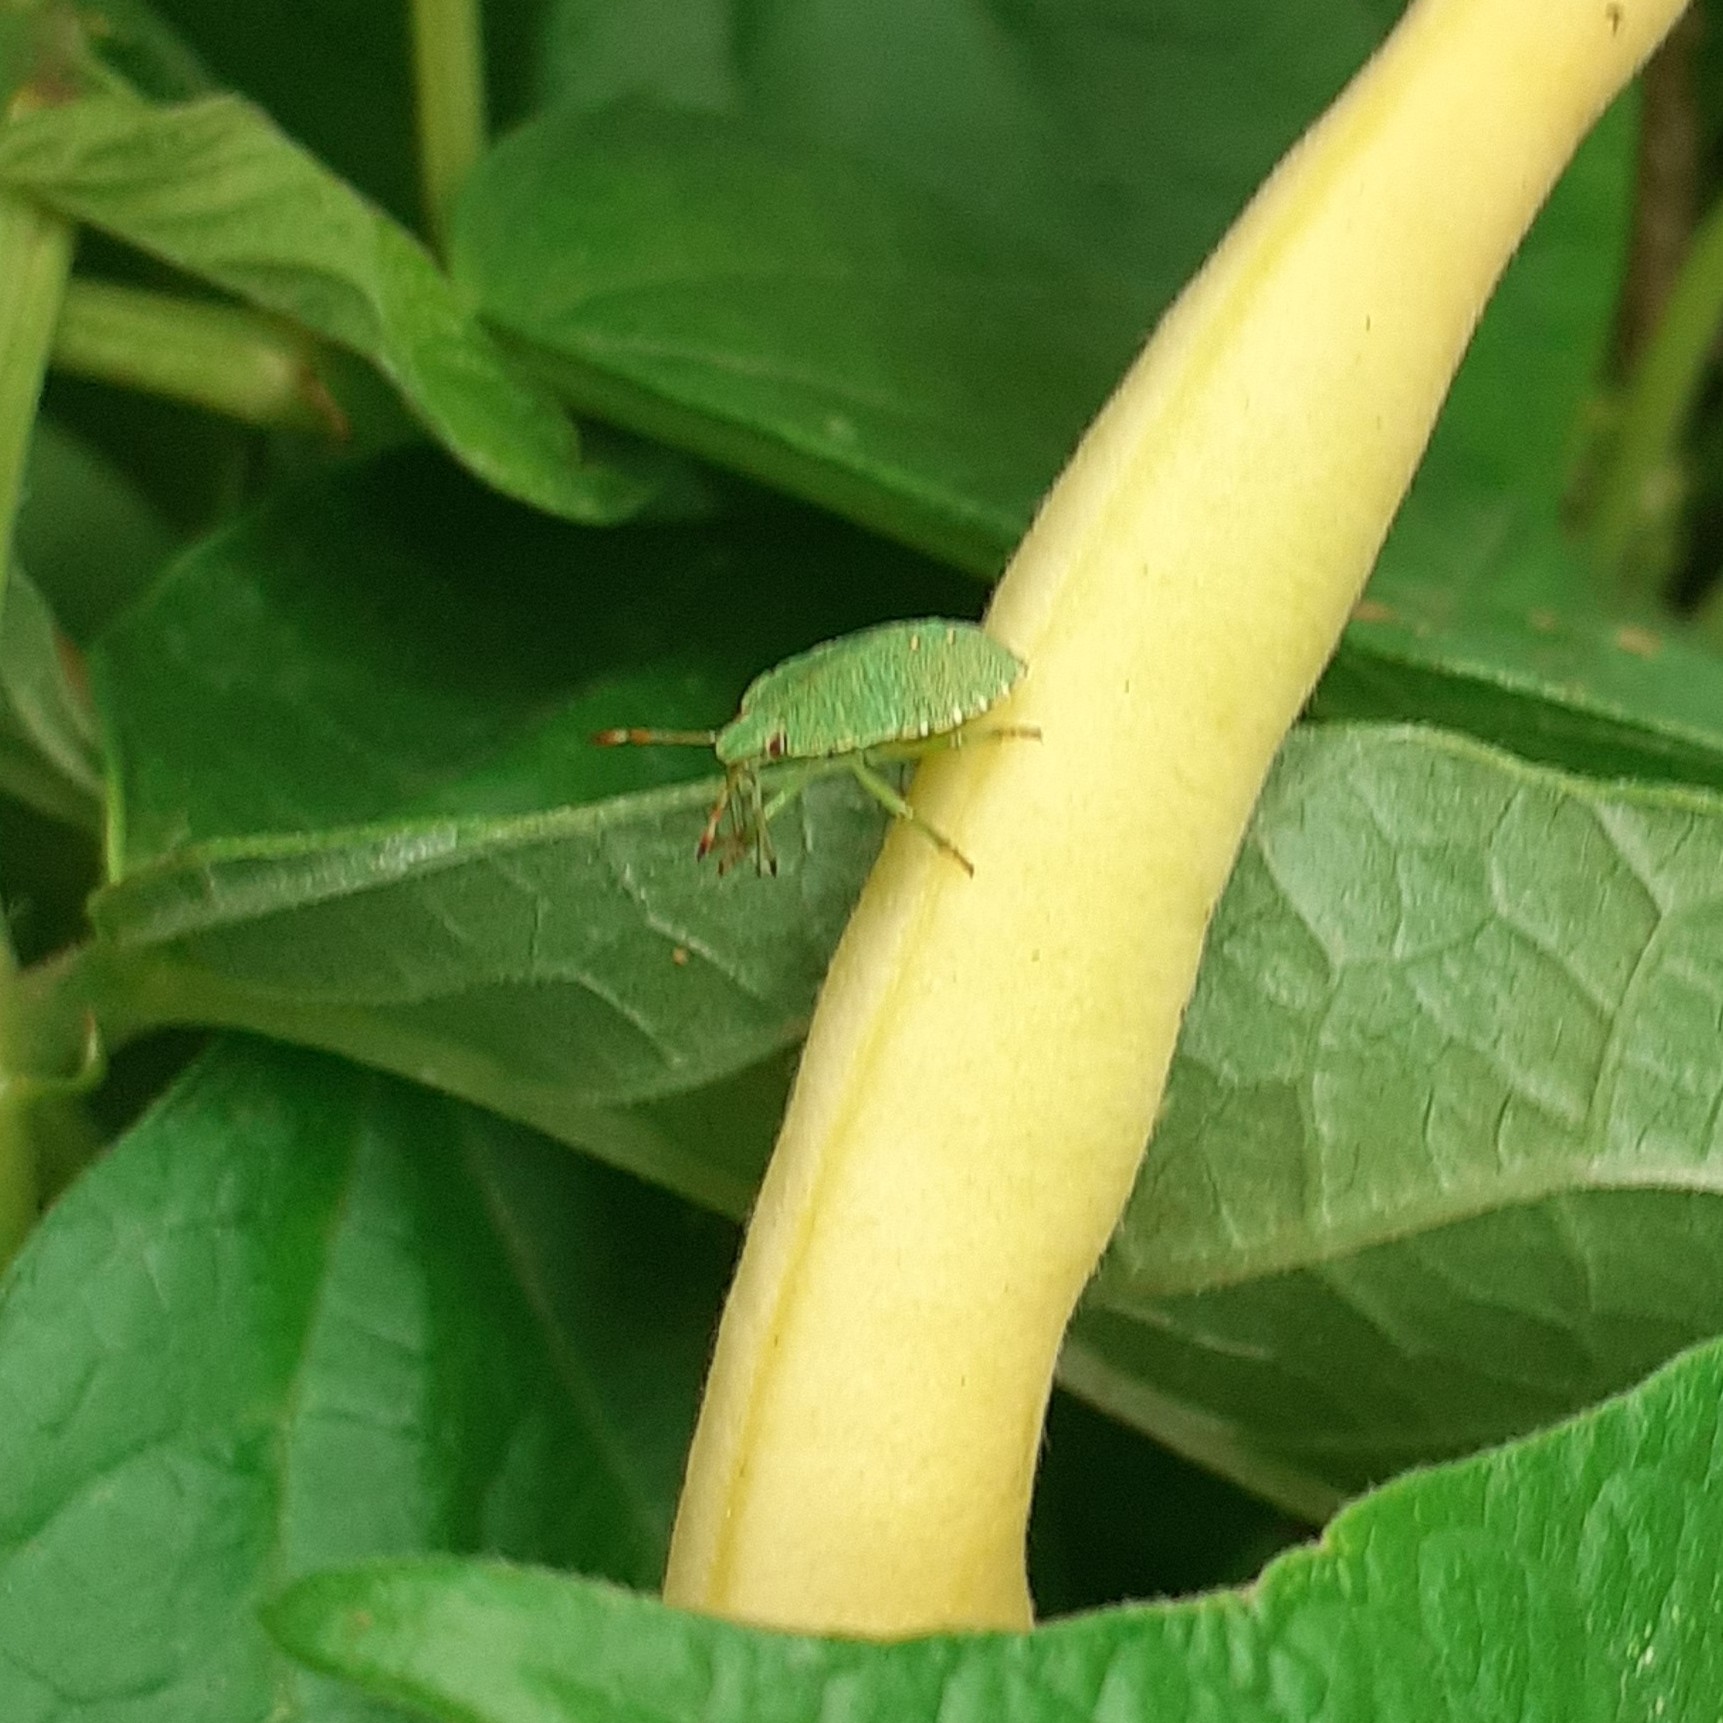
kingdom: Animalia
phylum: Arthropoda
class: Insecta
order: Hemiptera
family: Pentatomidae
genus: Palomena
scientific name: Palomena prasina
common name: Green shieldbug
